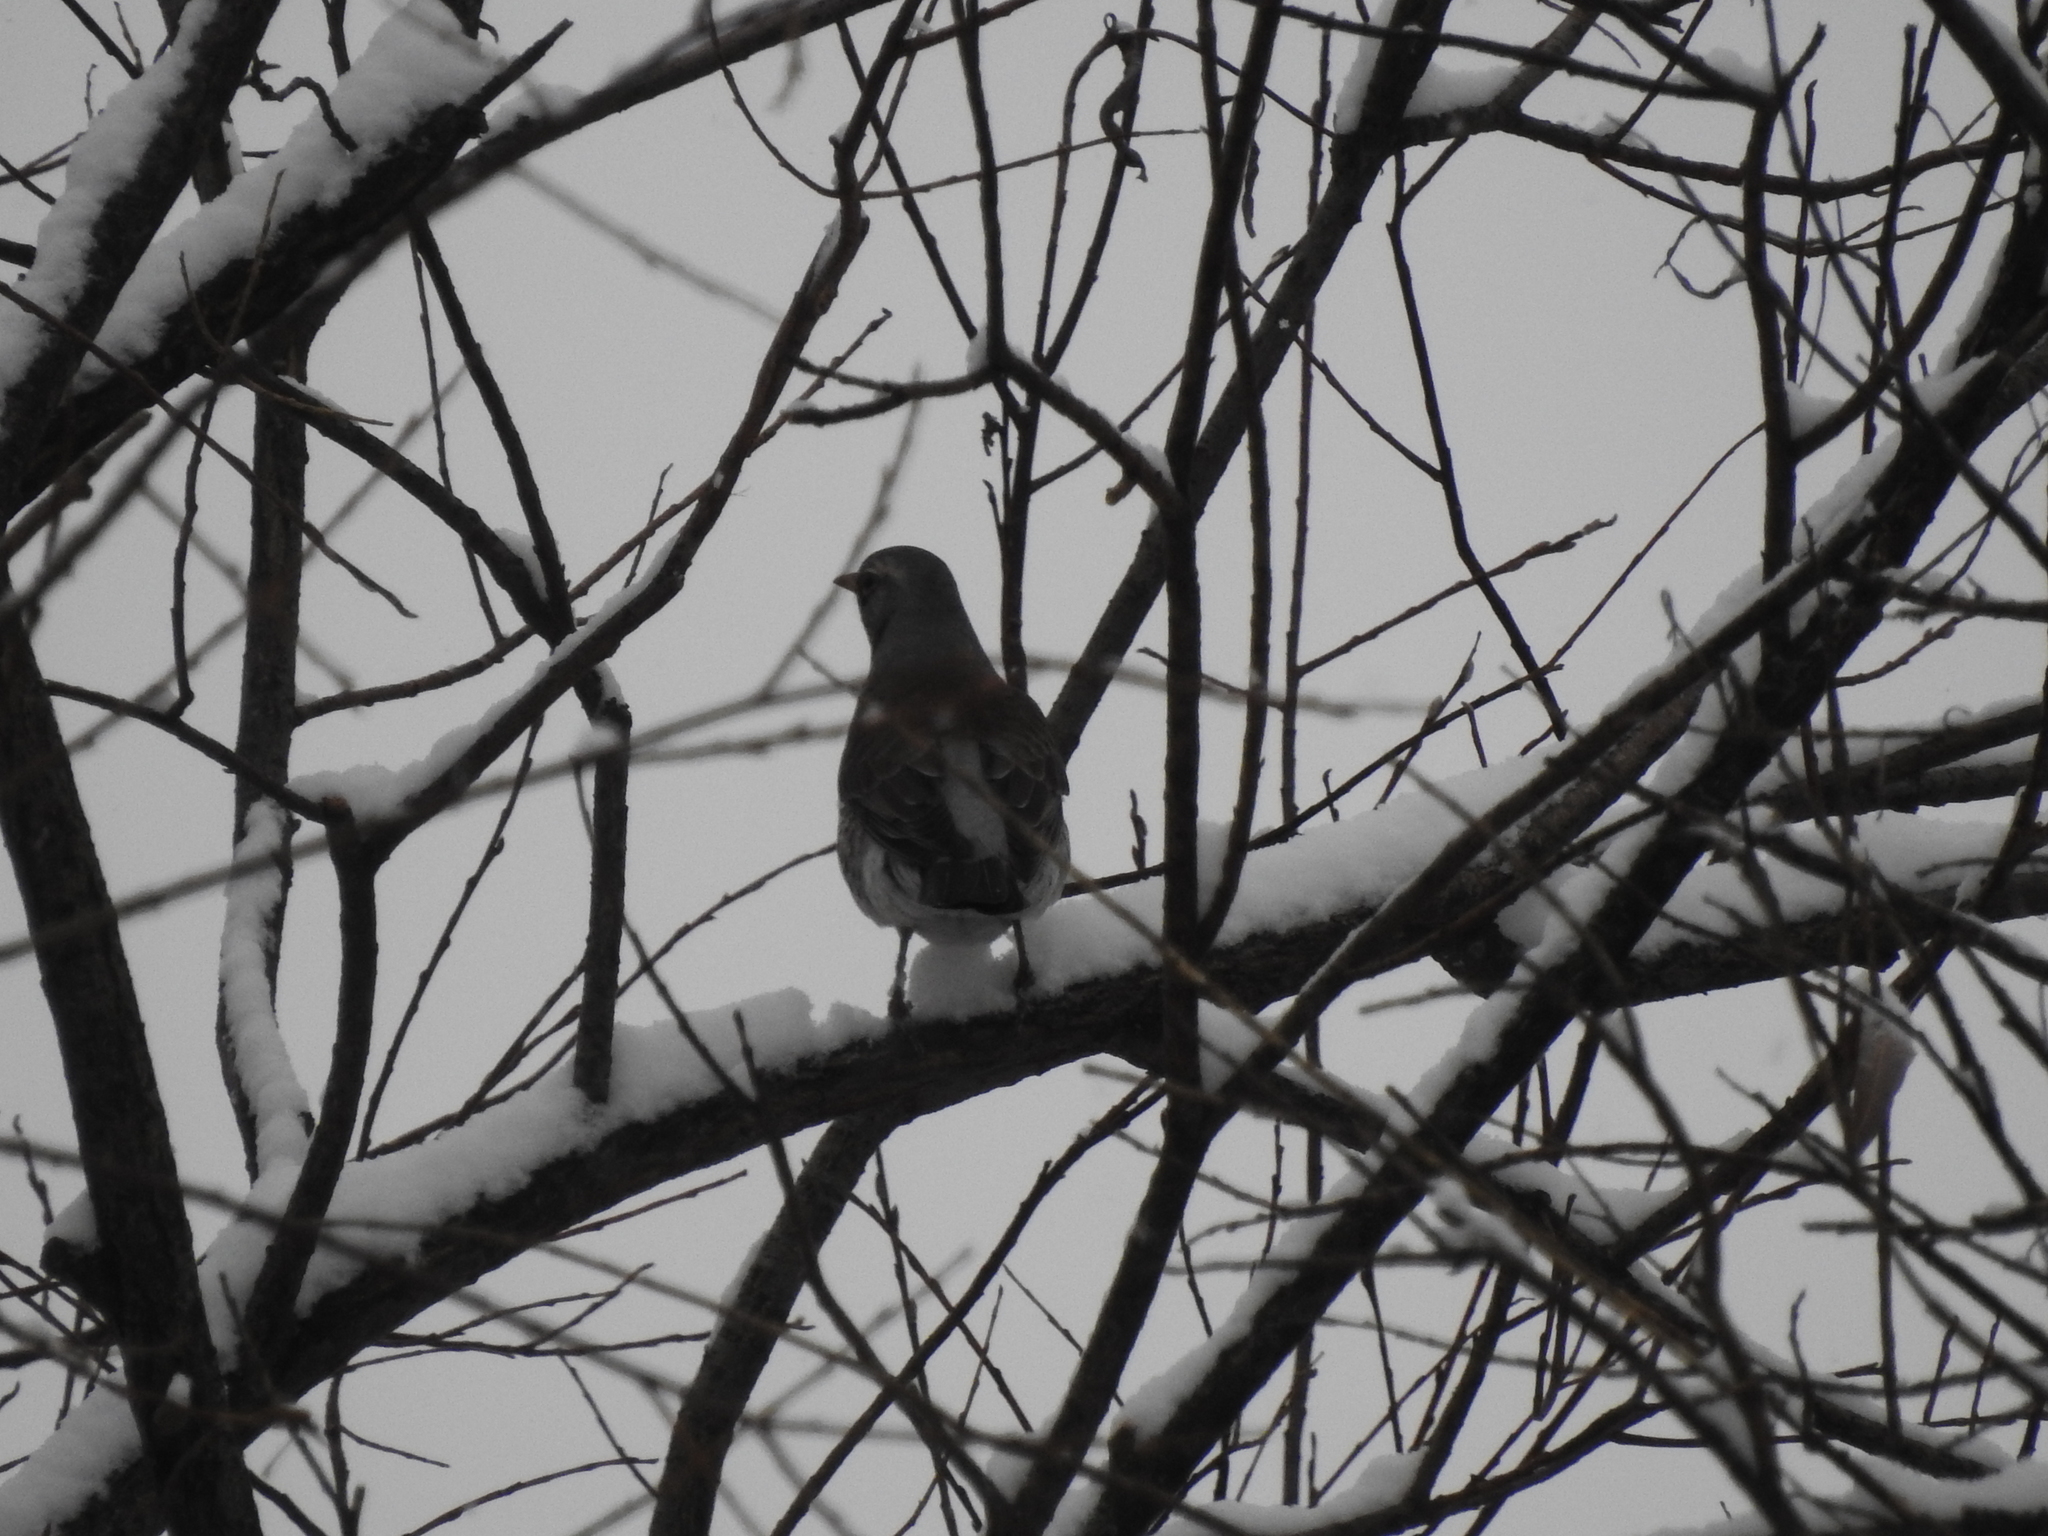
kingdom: Animalia
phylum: Chordata
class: Aves
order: Passeriformes
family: Turdidae
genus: Turdus
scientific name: Turdus pilaris
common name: Fieldfare
